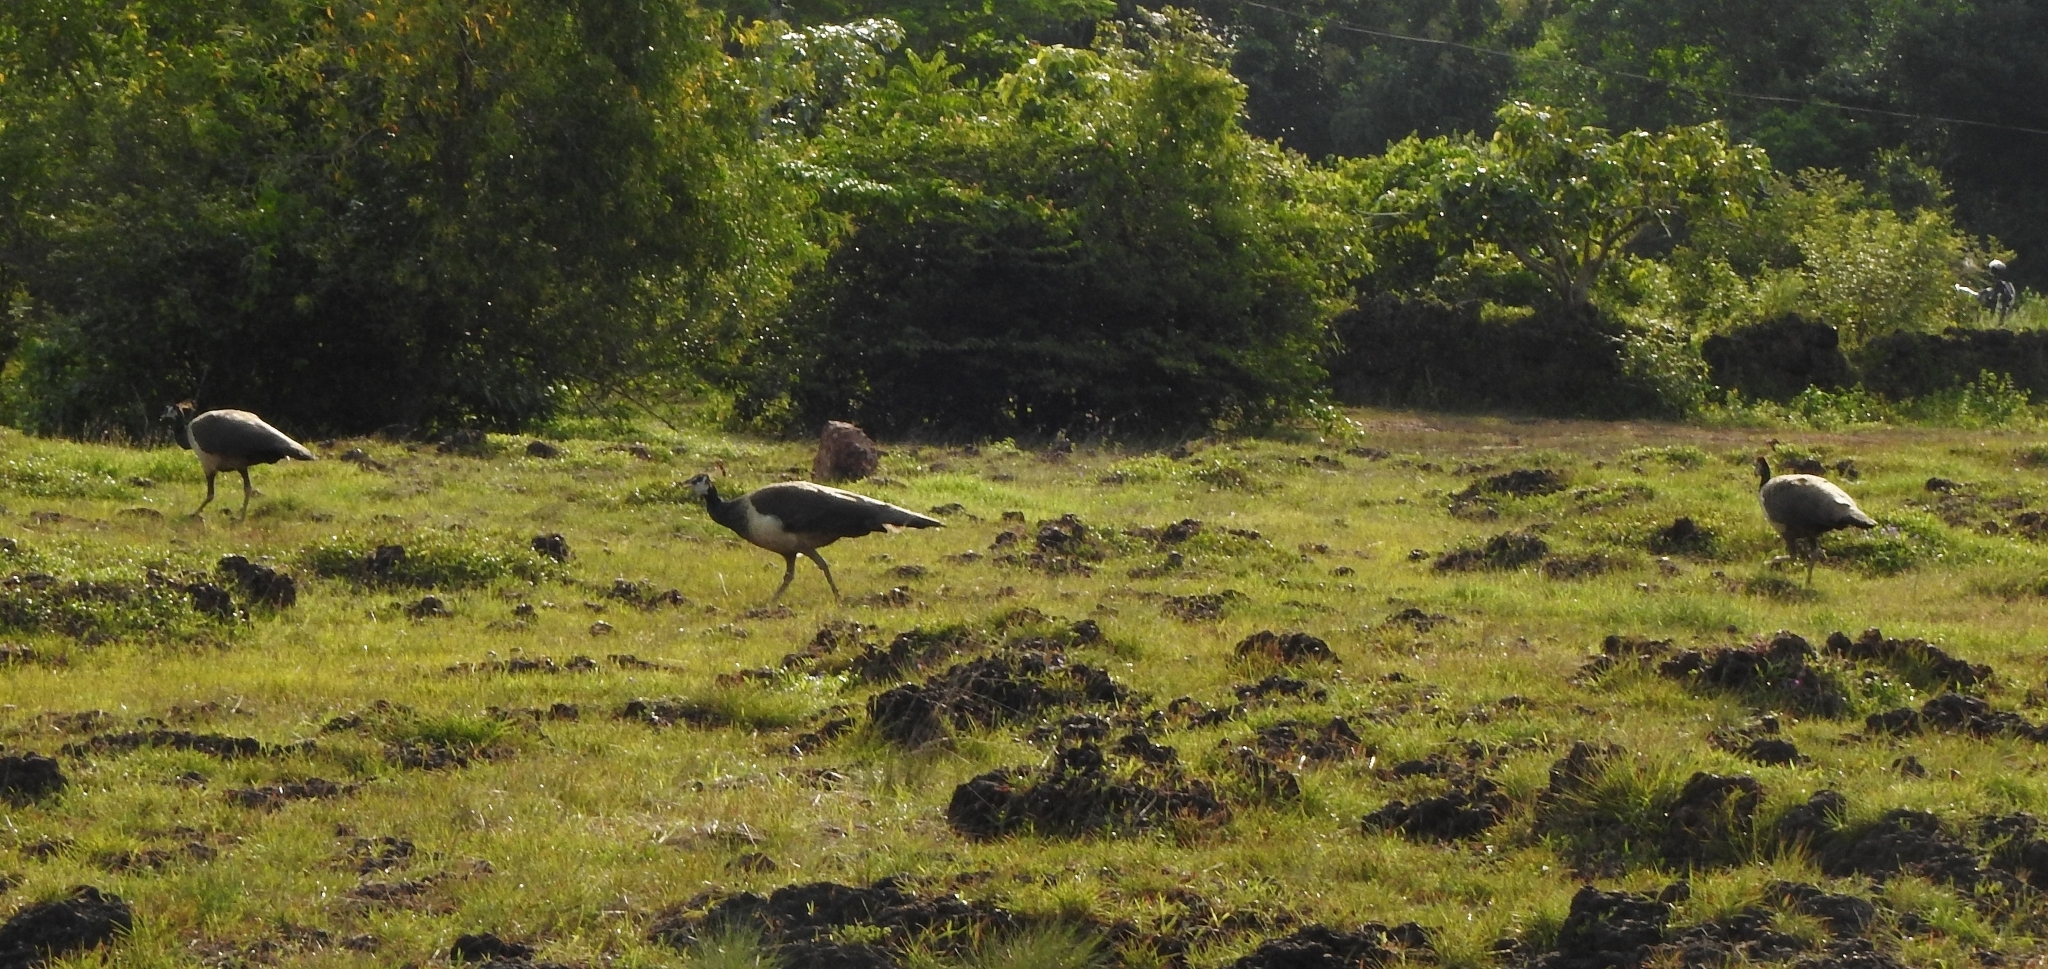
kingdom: Animalia
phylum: Chordata
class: Aves
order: Galliformes
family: Phasianidae
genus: Pavo
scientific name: Pavo cristatus
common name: Indian peafowl
